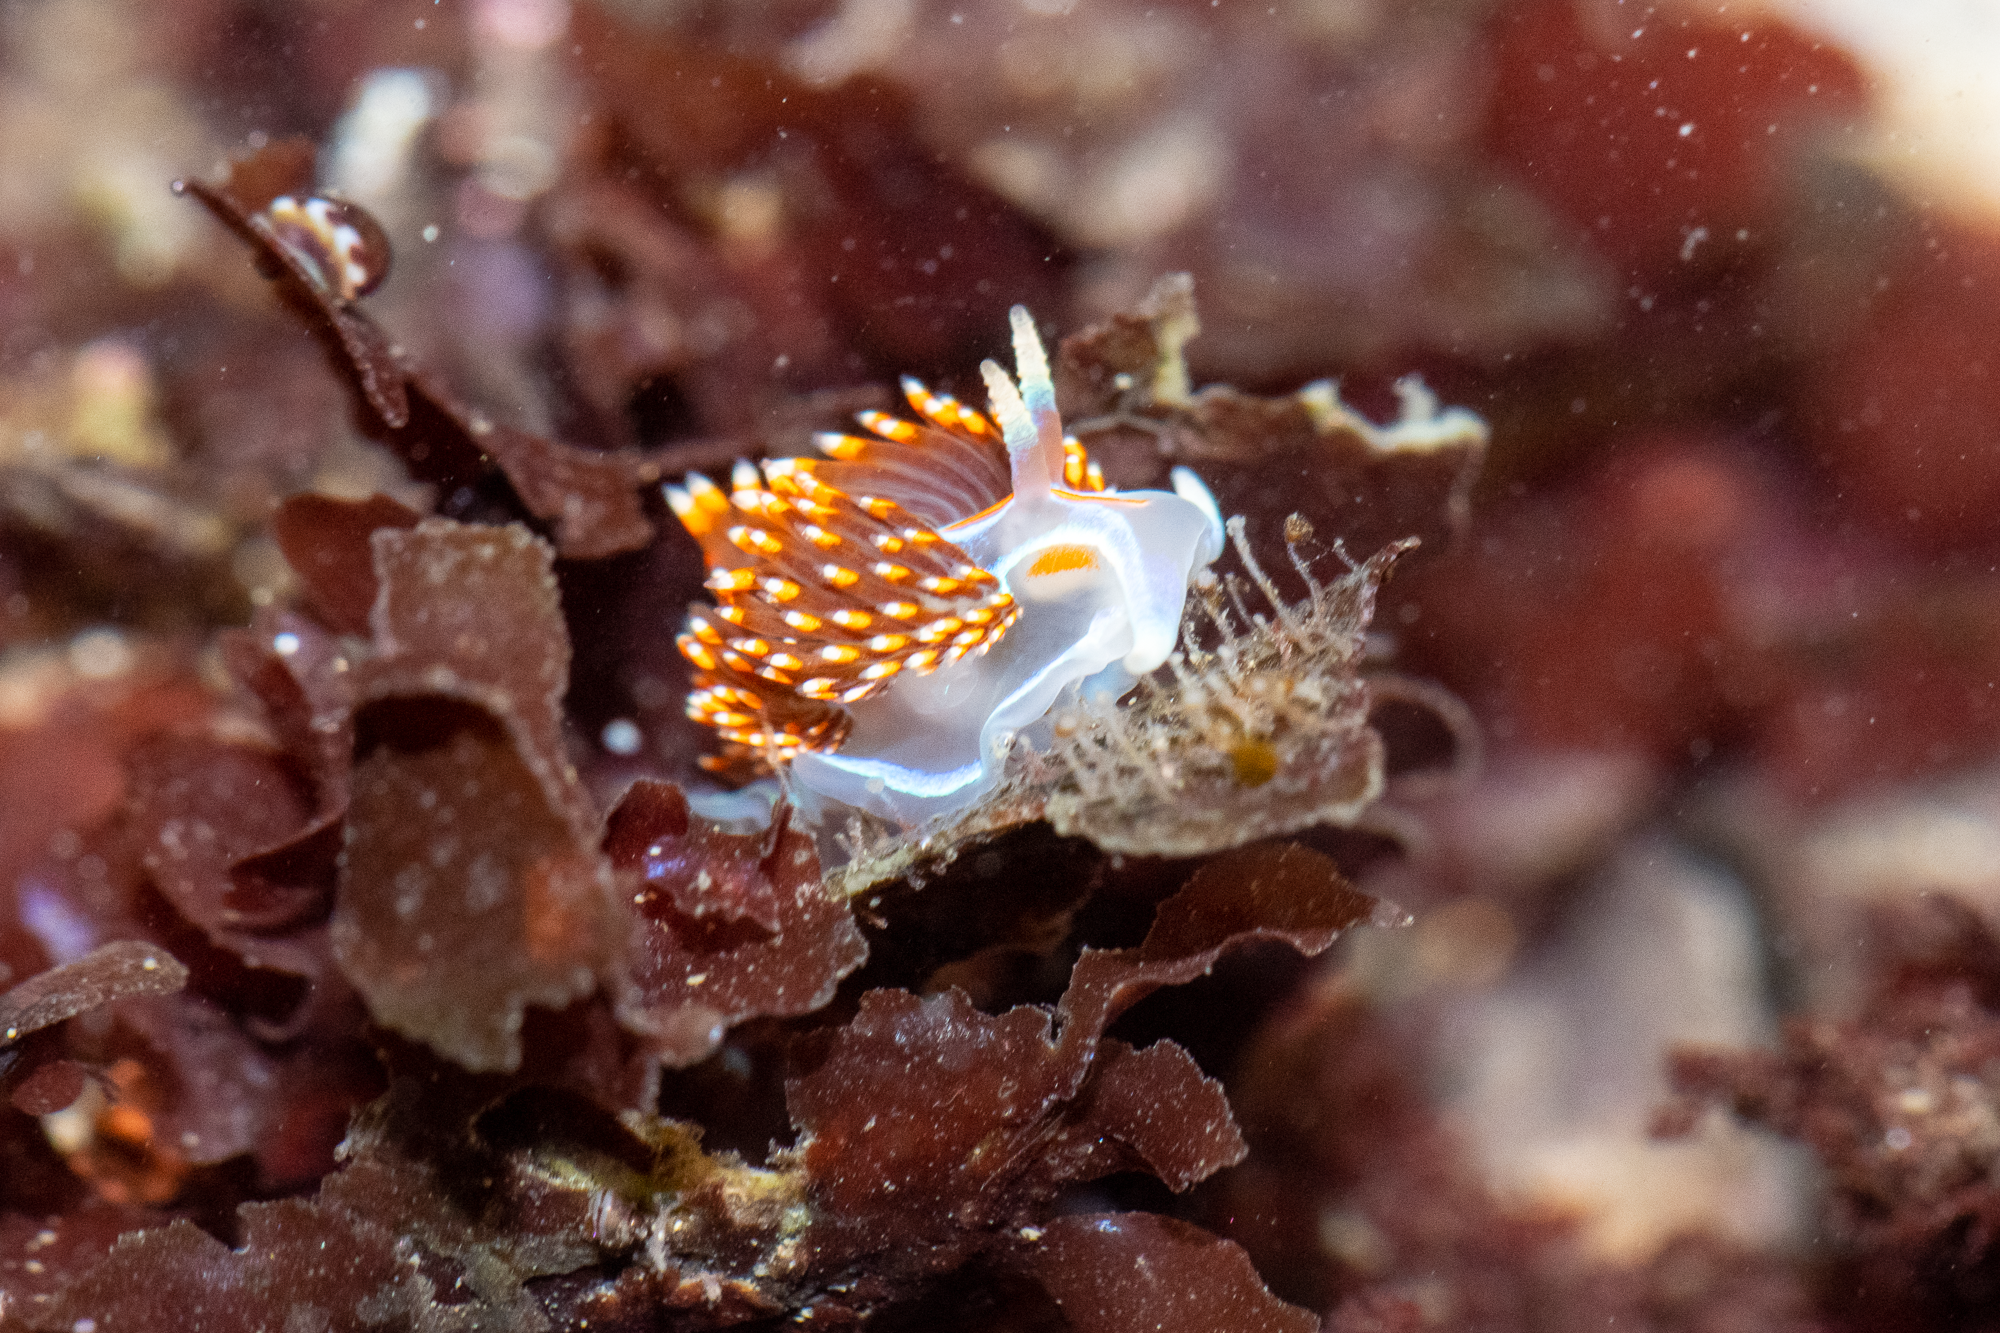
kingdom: Animalia
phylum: Mollusca
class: Gastropoda
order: Nudibranchia
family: Myrrhinidae
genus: Hermissenda
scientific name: Hermissenda opalescens
